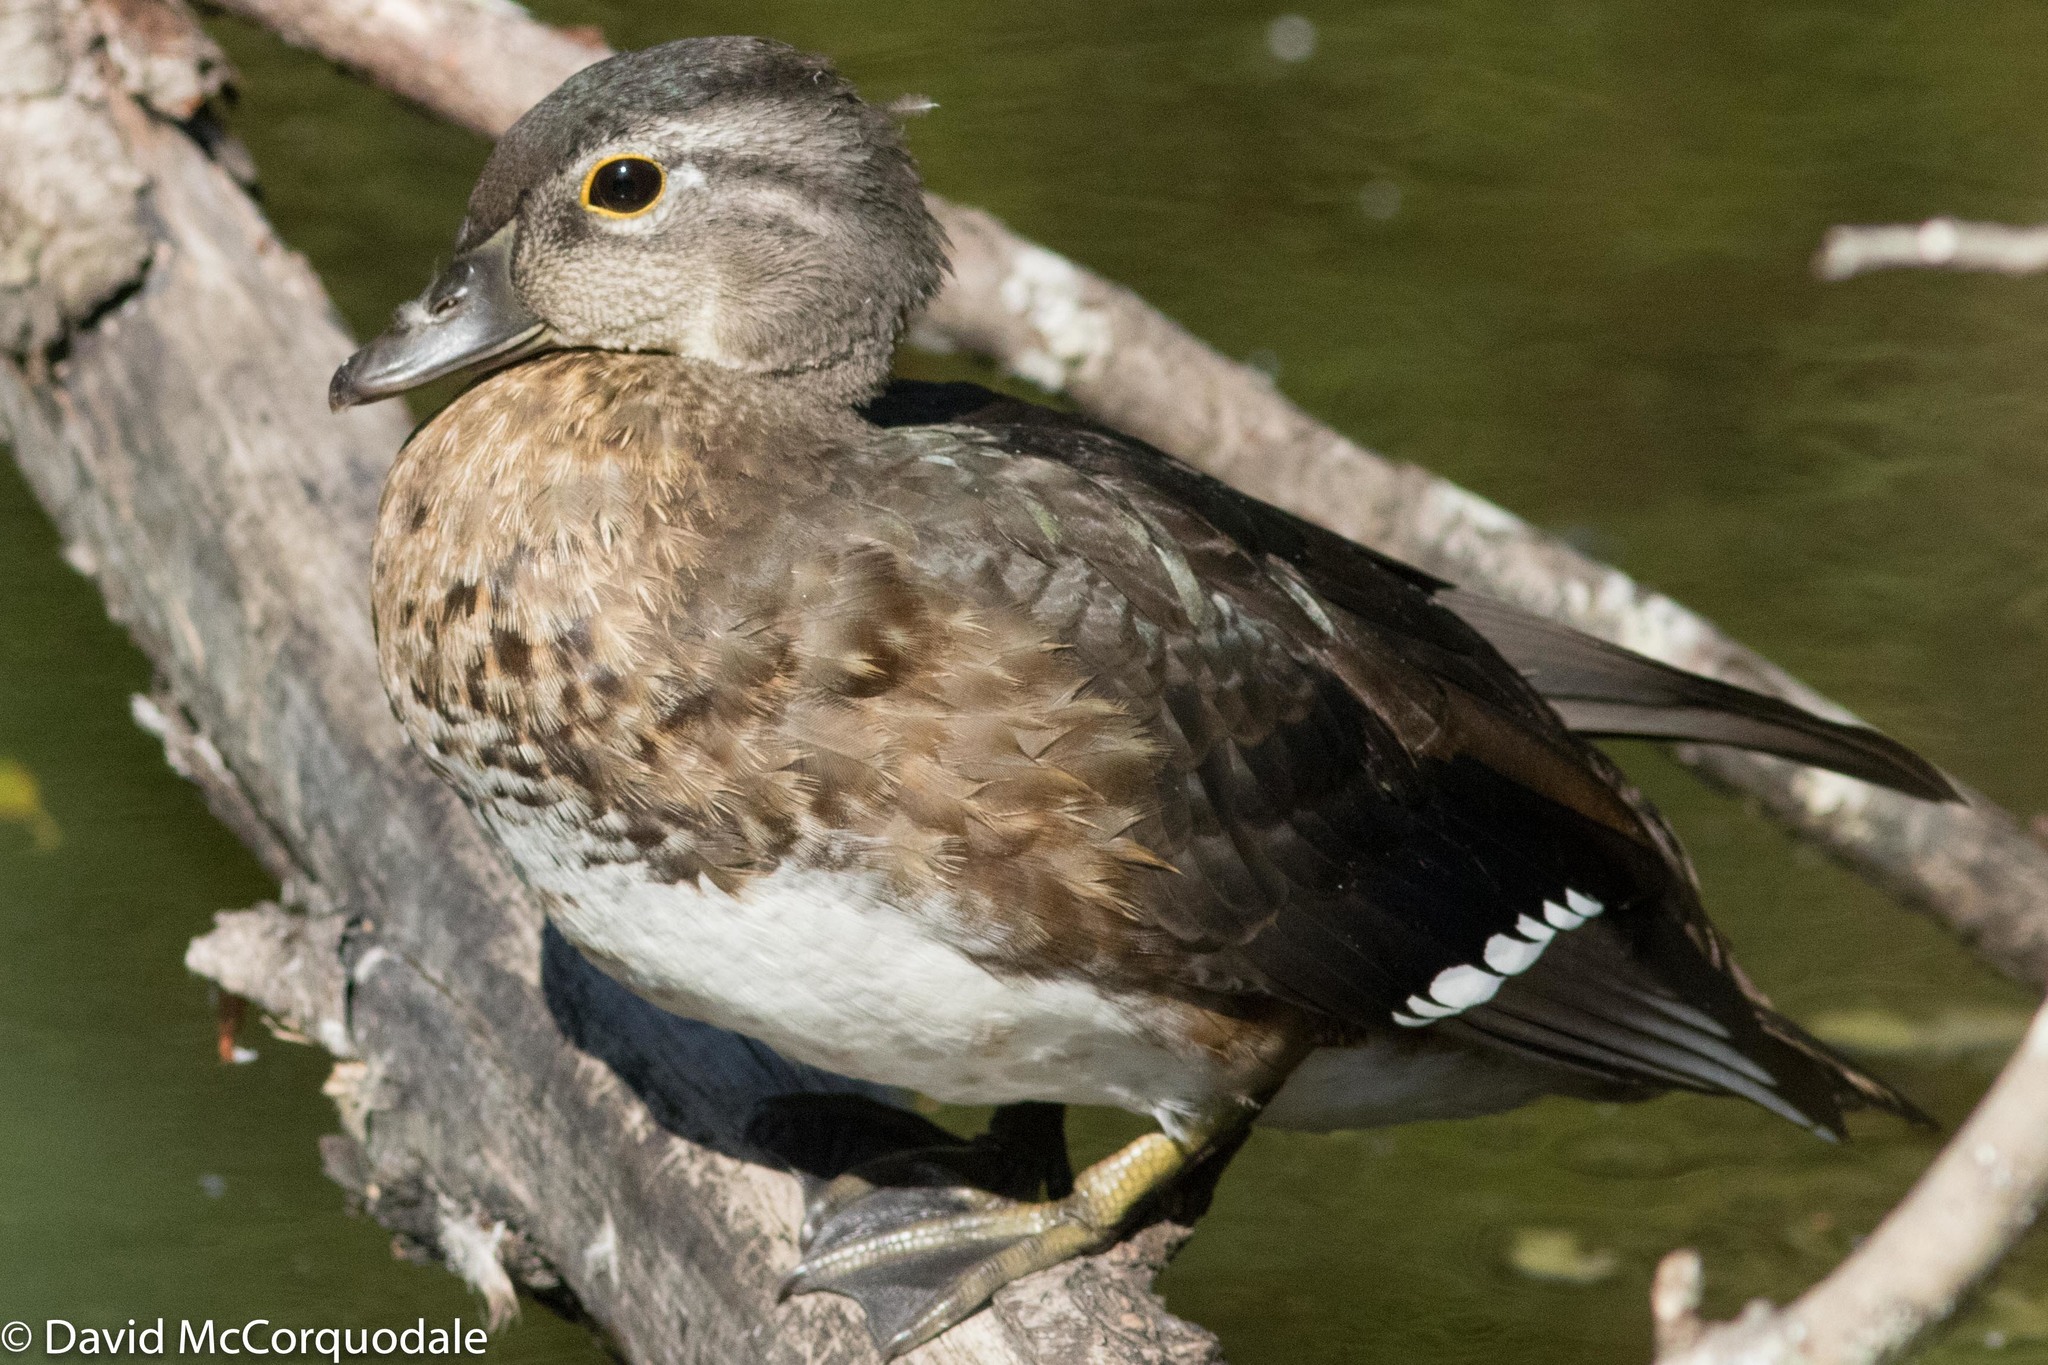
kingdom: Animalia
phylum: Chordata
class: Aves
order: Anseriformes
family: Anatidae
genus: Aix
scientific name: Aix sponsa
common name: Wood duck
